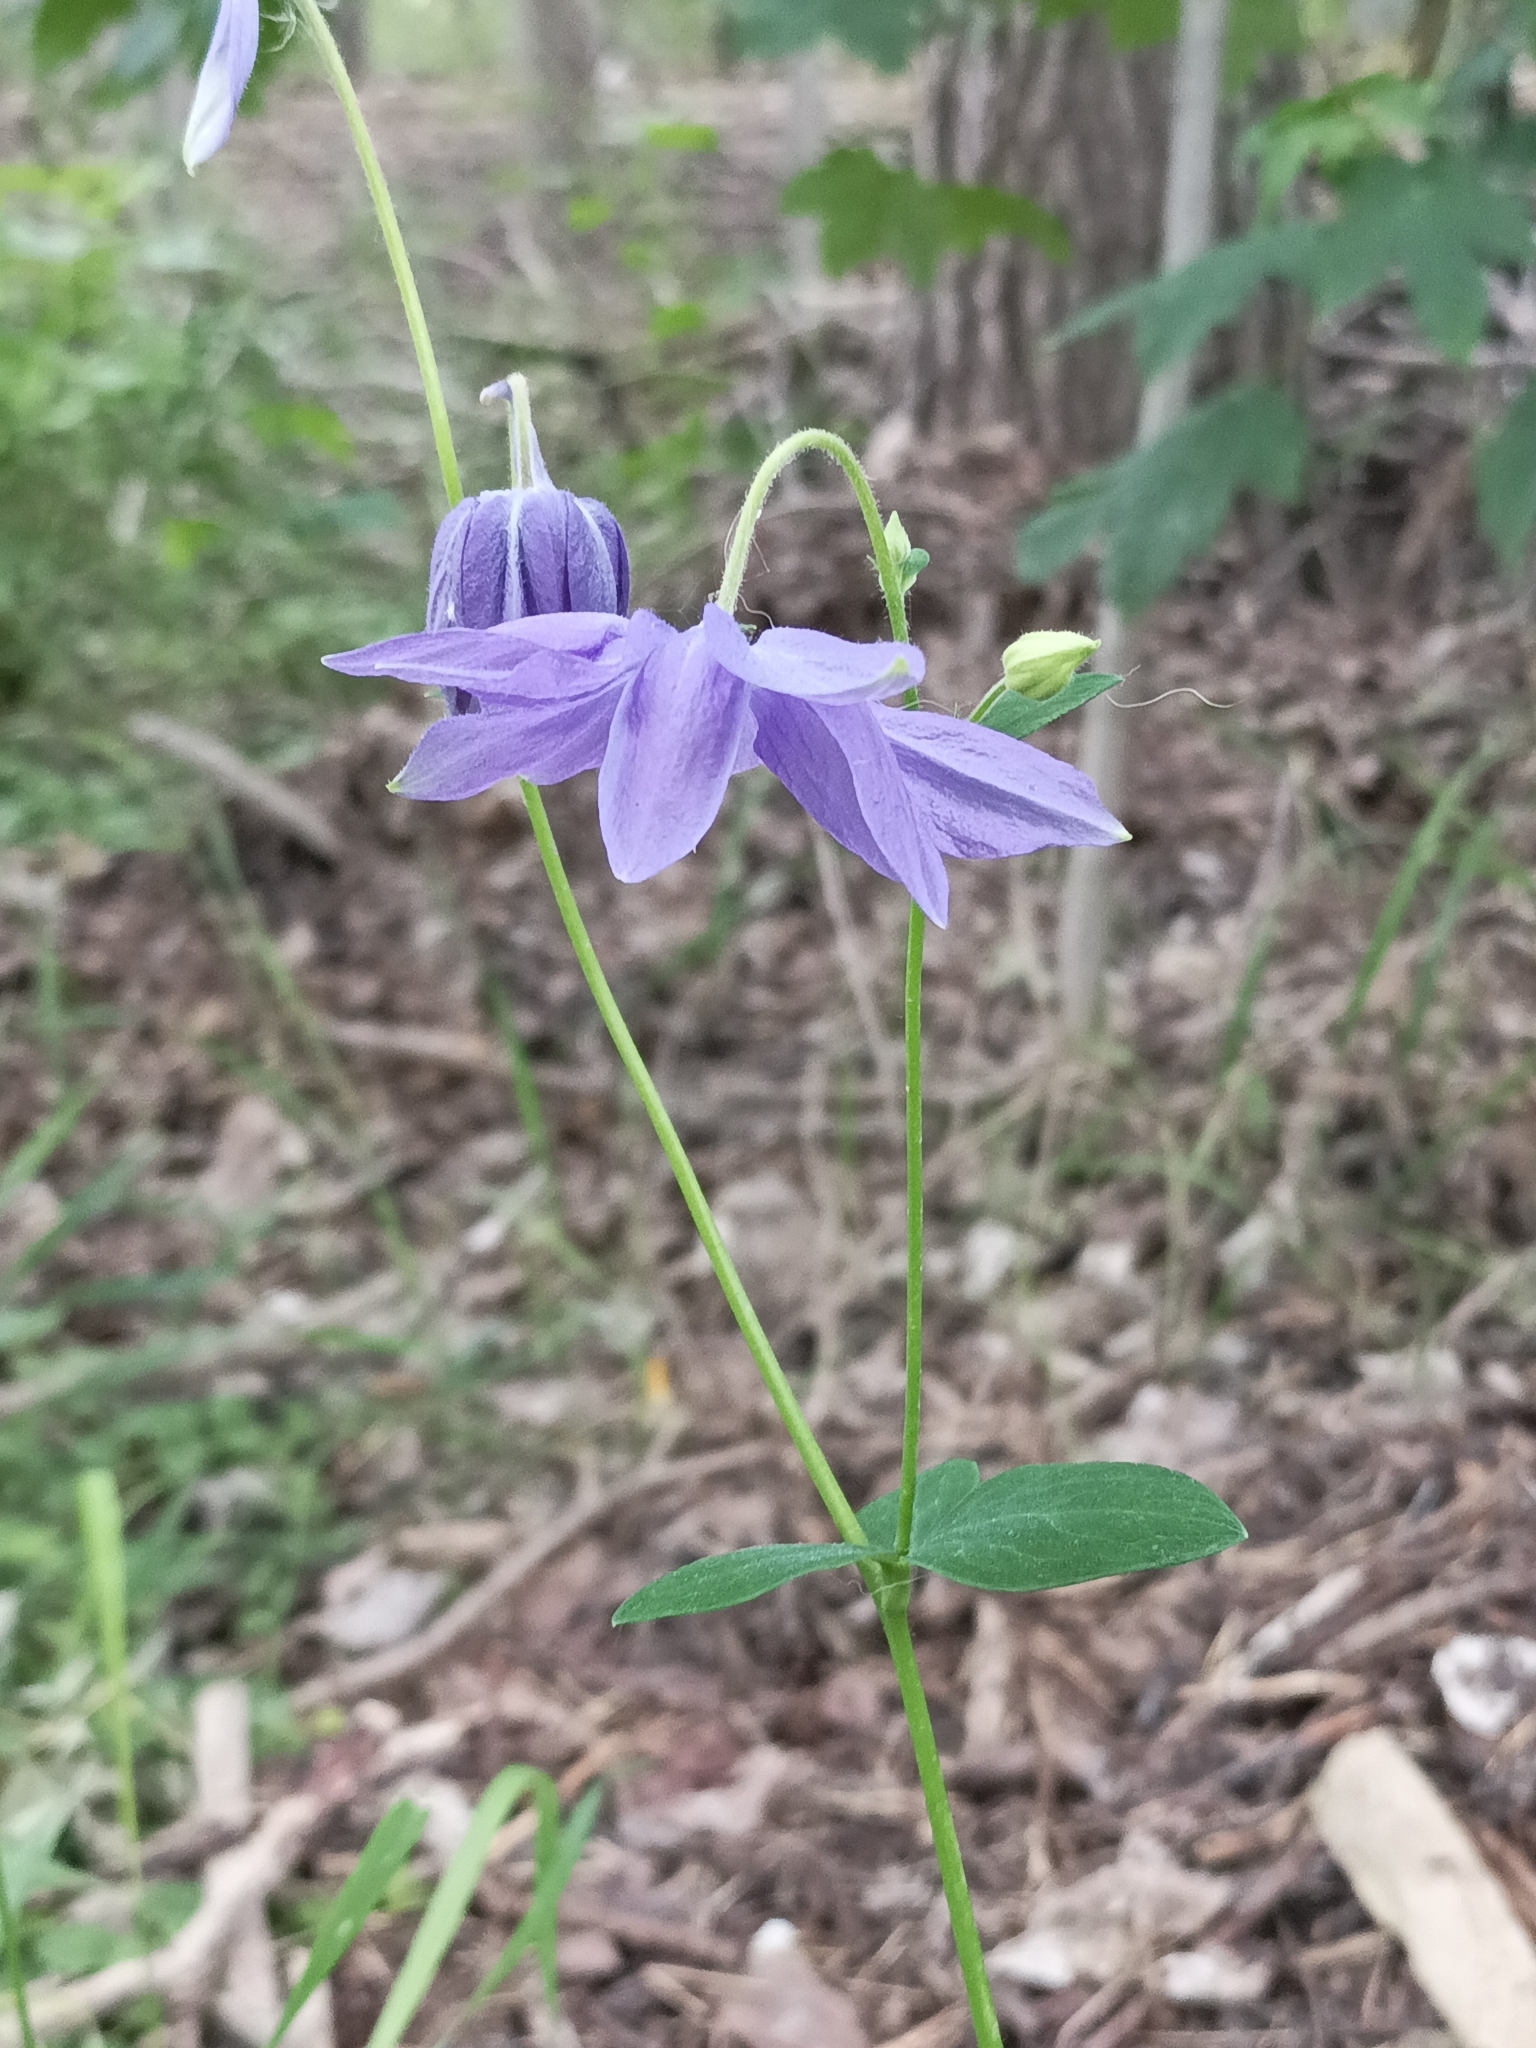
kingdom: Plantae
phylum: Tracheophyta
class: Magnoliopsida
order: Ranunculales
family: Ranunculaceae
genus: Aquilegia
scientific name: Aquilegia vulgaris
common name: Columbine
